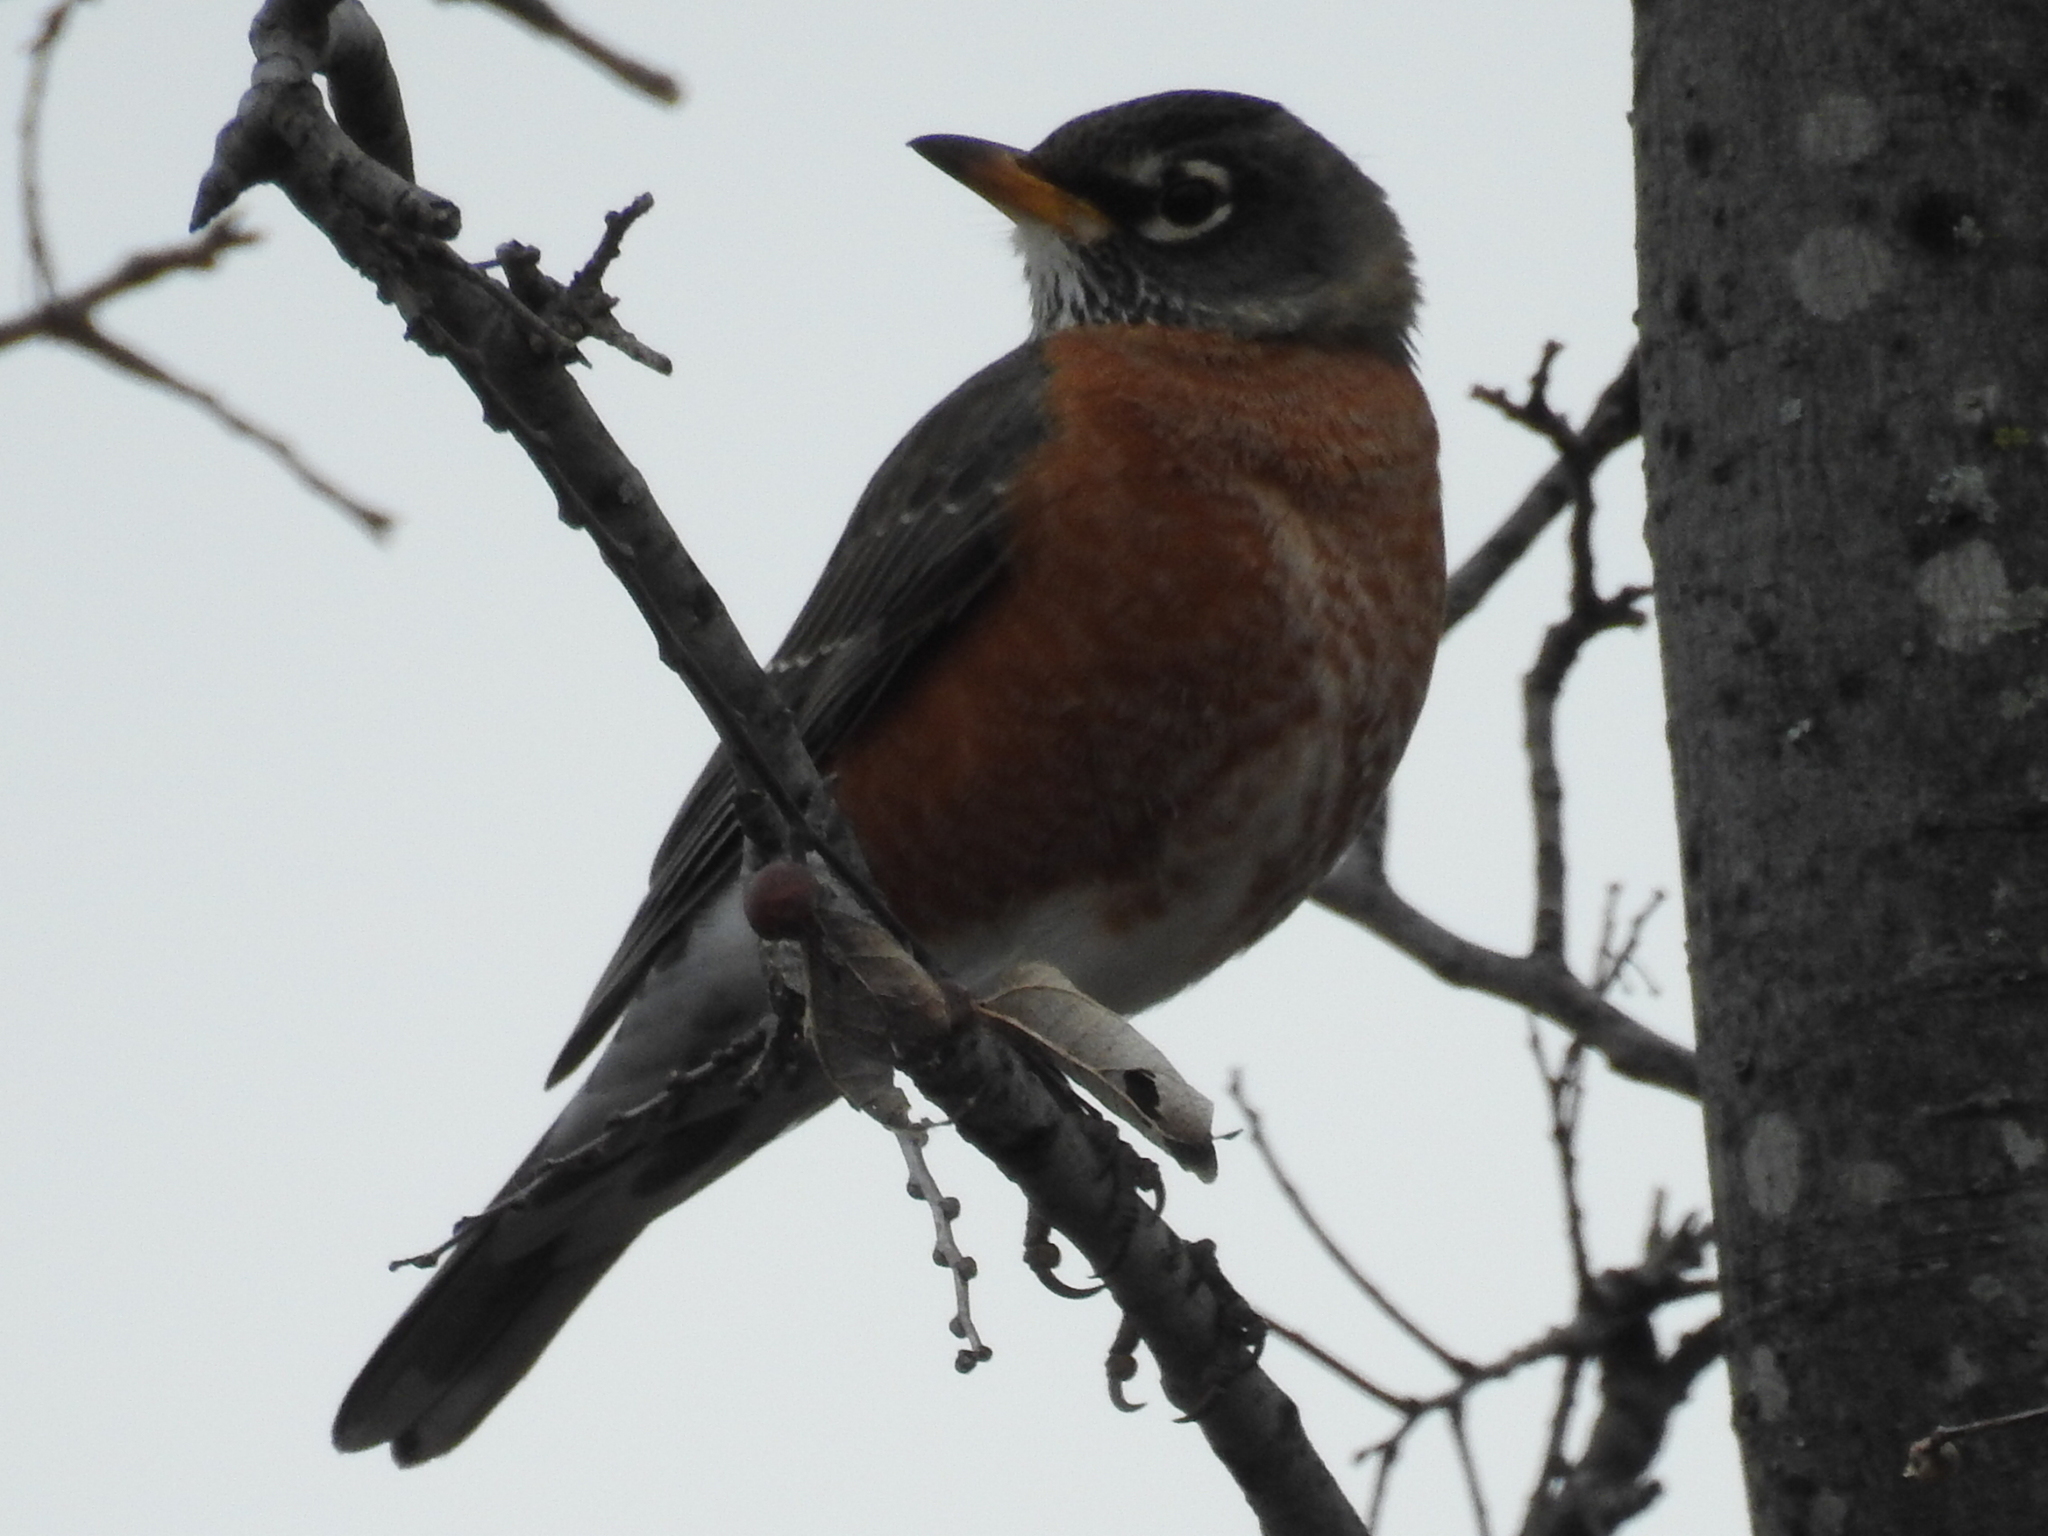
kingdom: Animalia
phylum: Chordata
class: Aves
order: Passeriformes
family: Turdidae
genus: Turdus
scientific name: Turdus migratorius
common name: American robin
